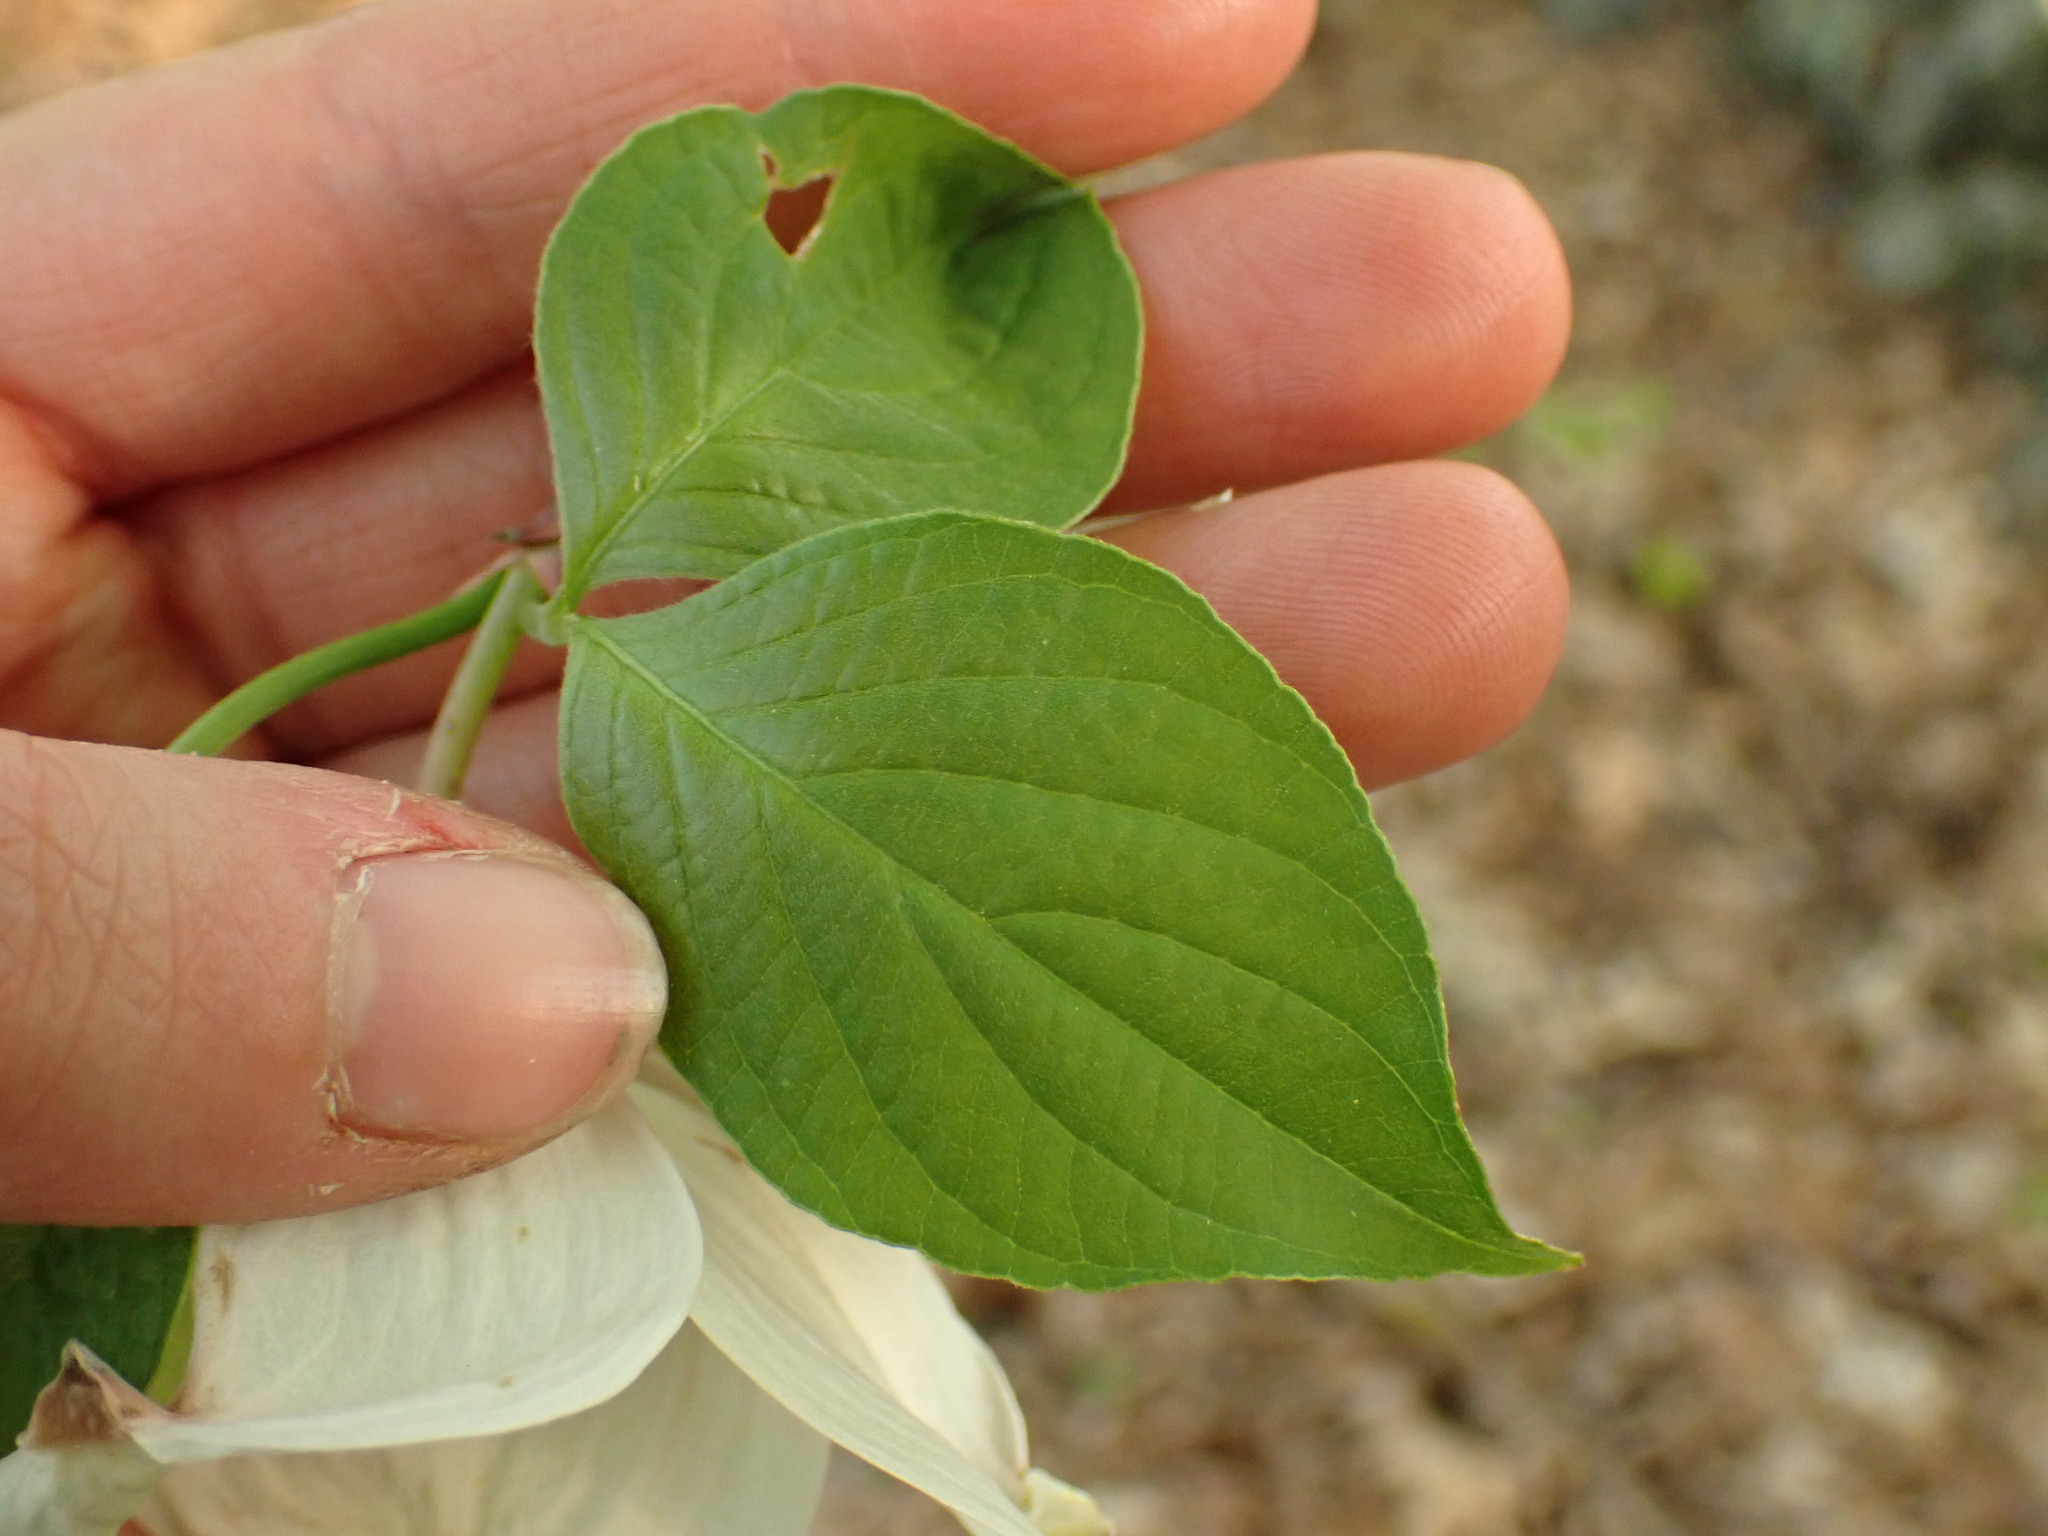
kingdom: Plantae
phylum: Tracheophyta
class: Magnoliopsida
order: Cornales
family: Cornaceae
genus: Cornus
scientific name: Cornus florida
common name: Flowering dogwood
